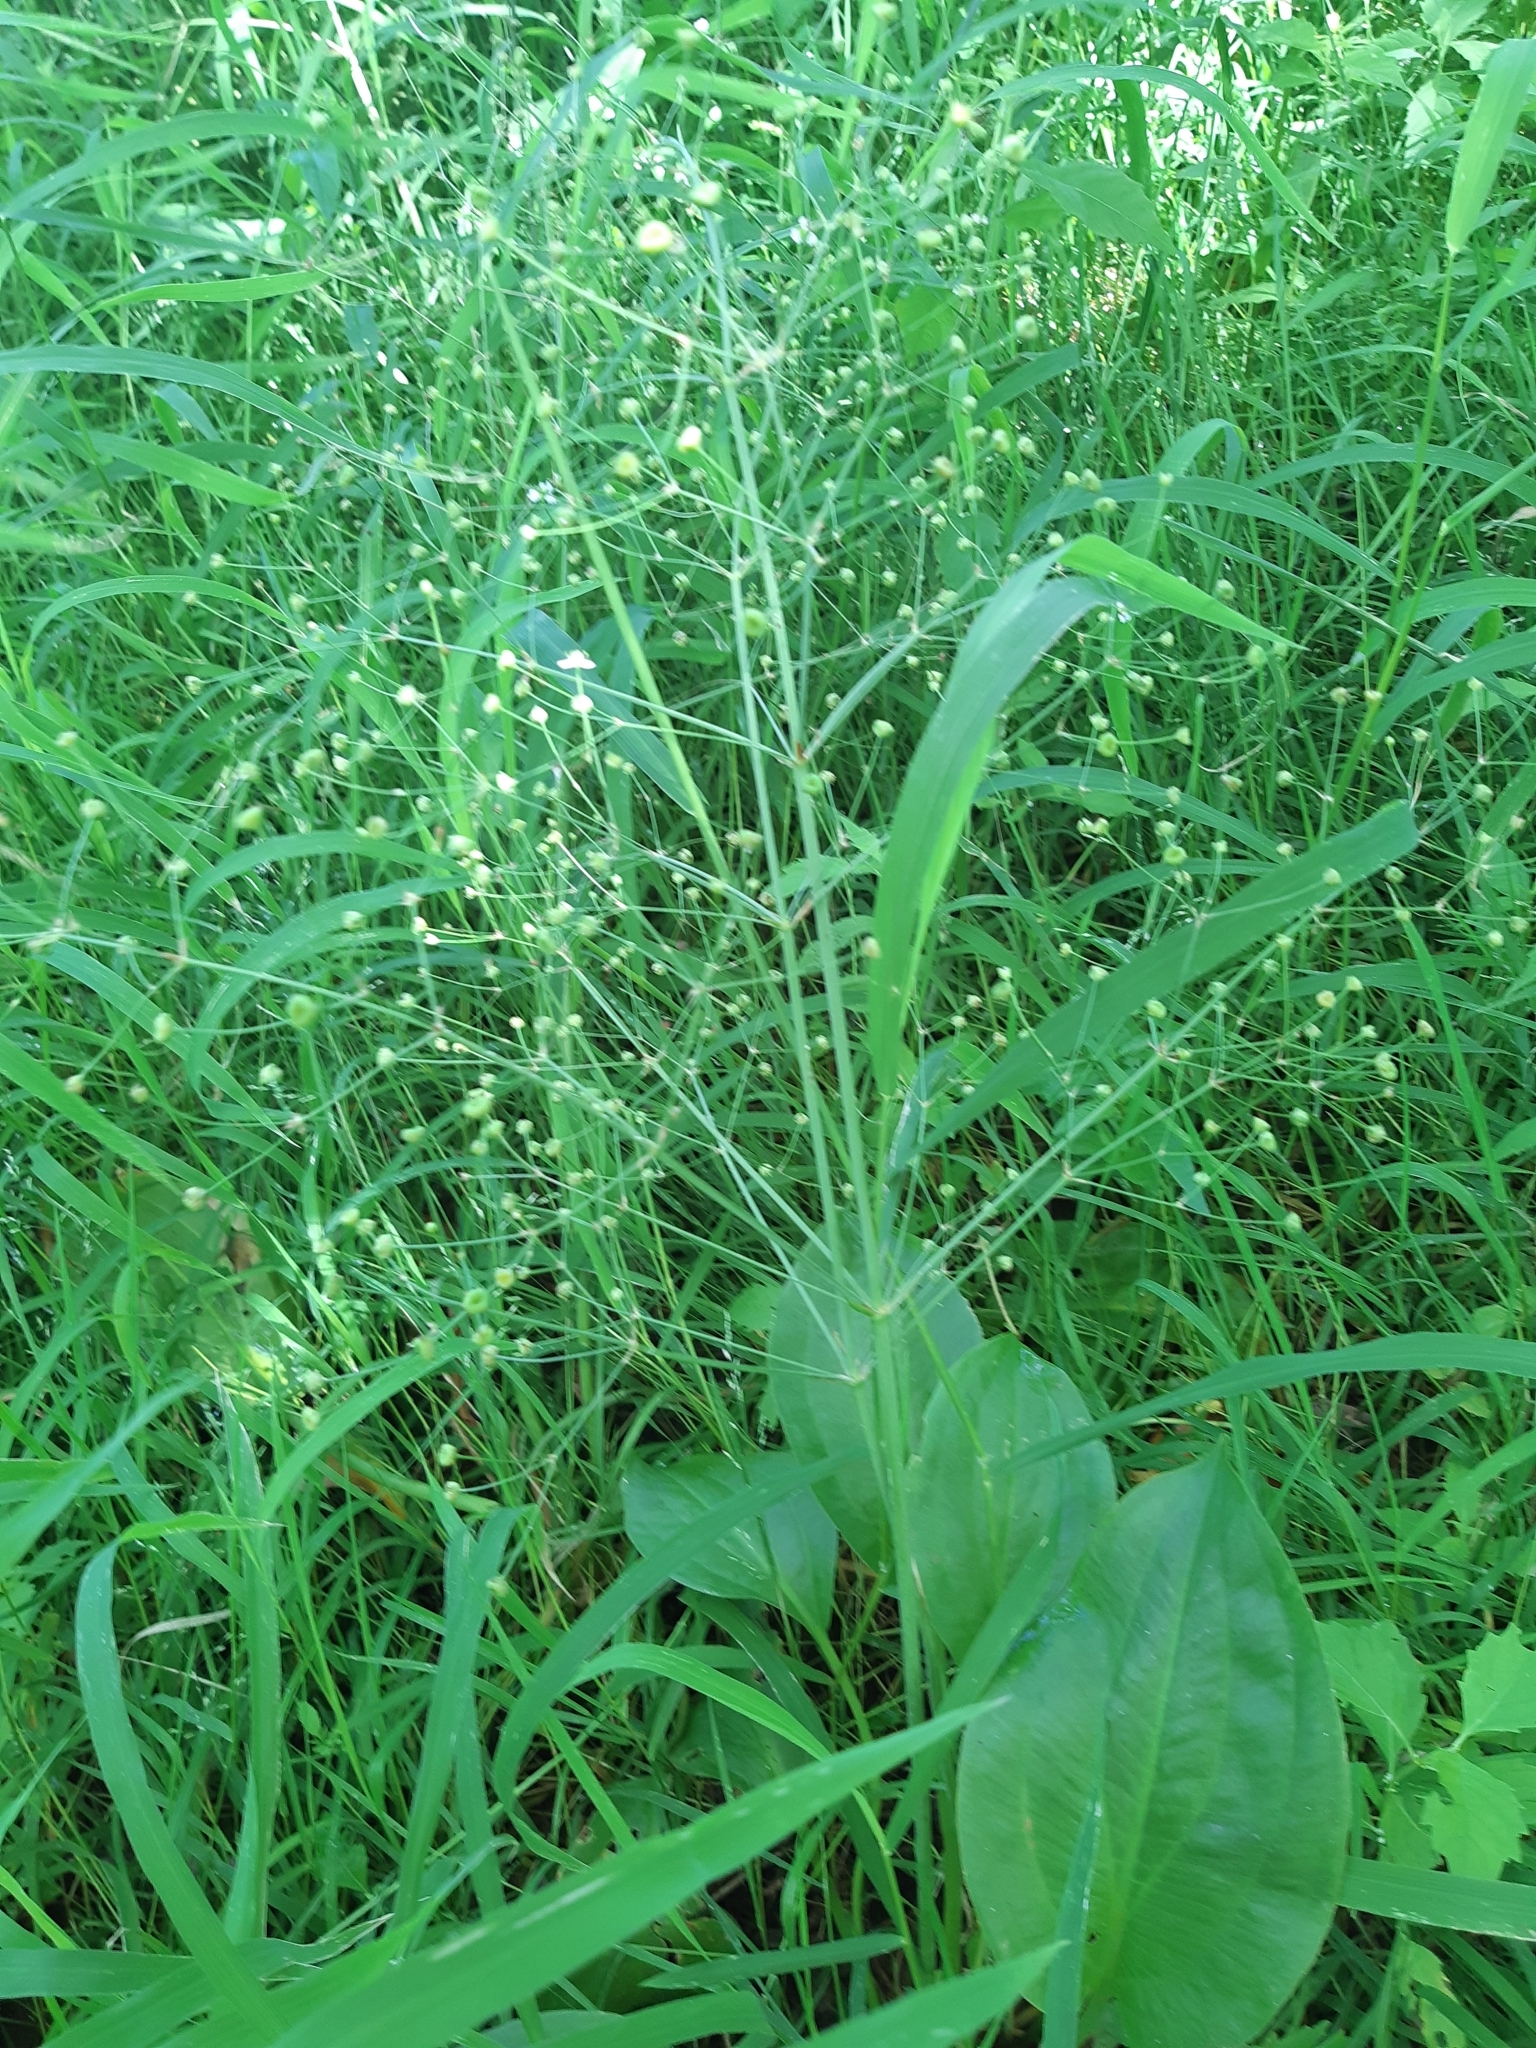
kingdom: Plantae
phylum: Tracheophyta
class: Liliopsida
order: Alismatales
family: Alismataceae
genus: Alisma
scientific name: Alisma triviale
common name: Northern water-plantain
